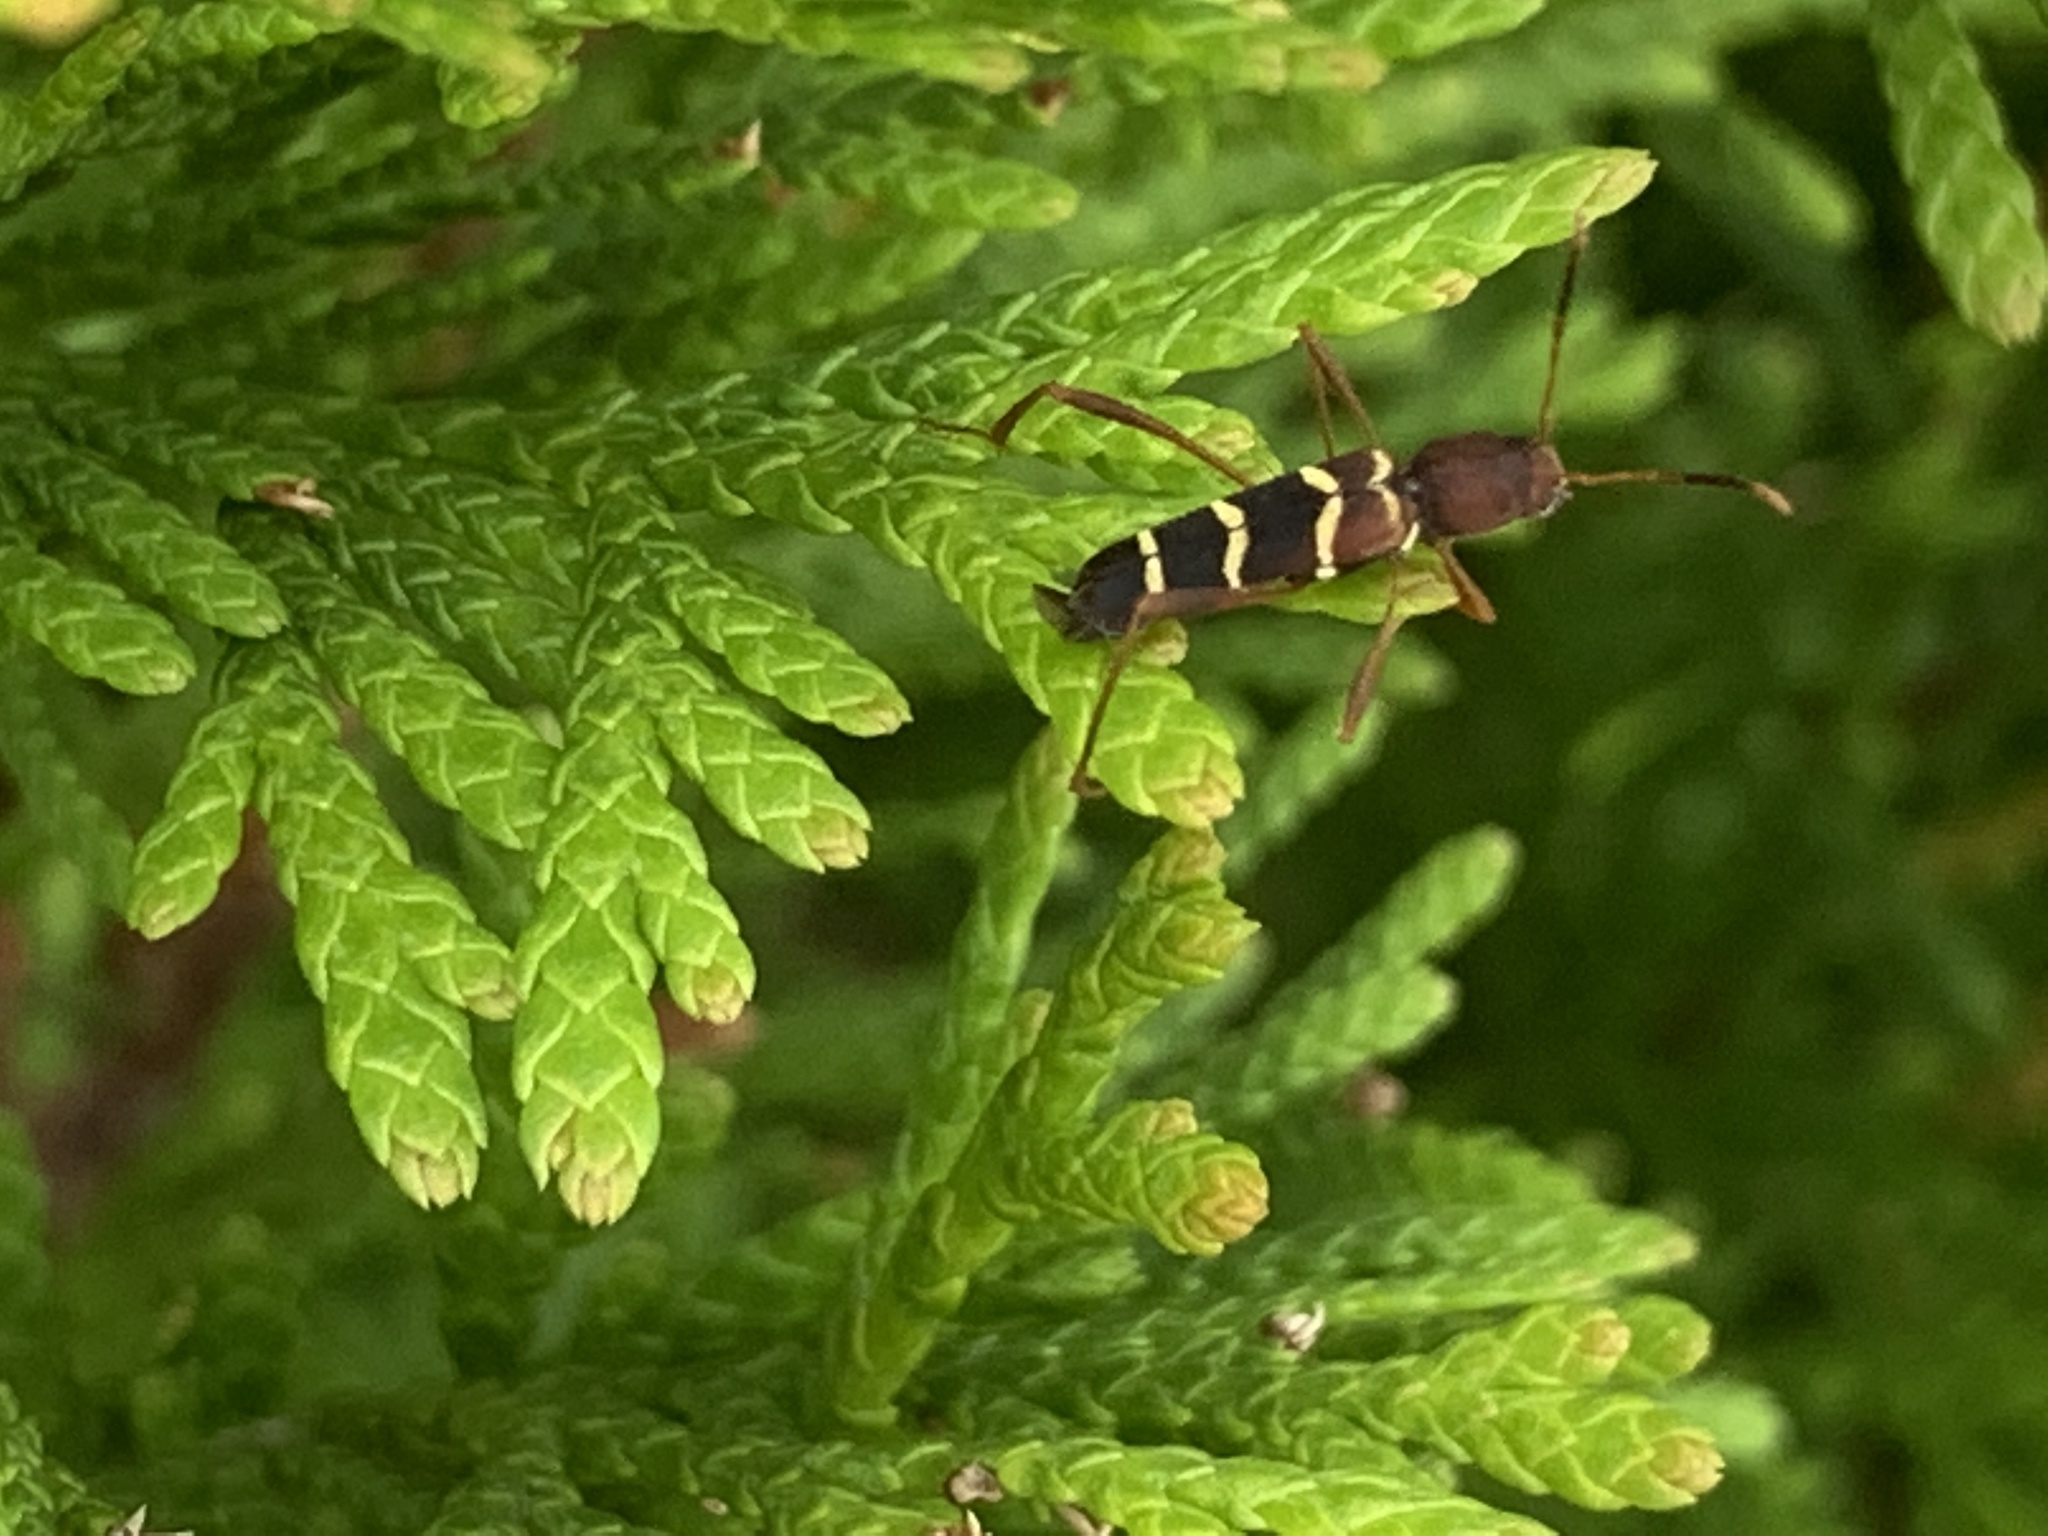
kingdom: Animalia
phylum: Arthropoda
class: Insecta
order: Coleoptera
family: Cerambycidae
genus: Neoclytus
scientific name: Neoclytus acuminatus
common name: Read-headed ash borer
